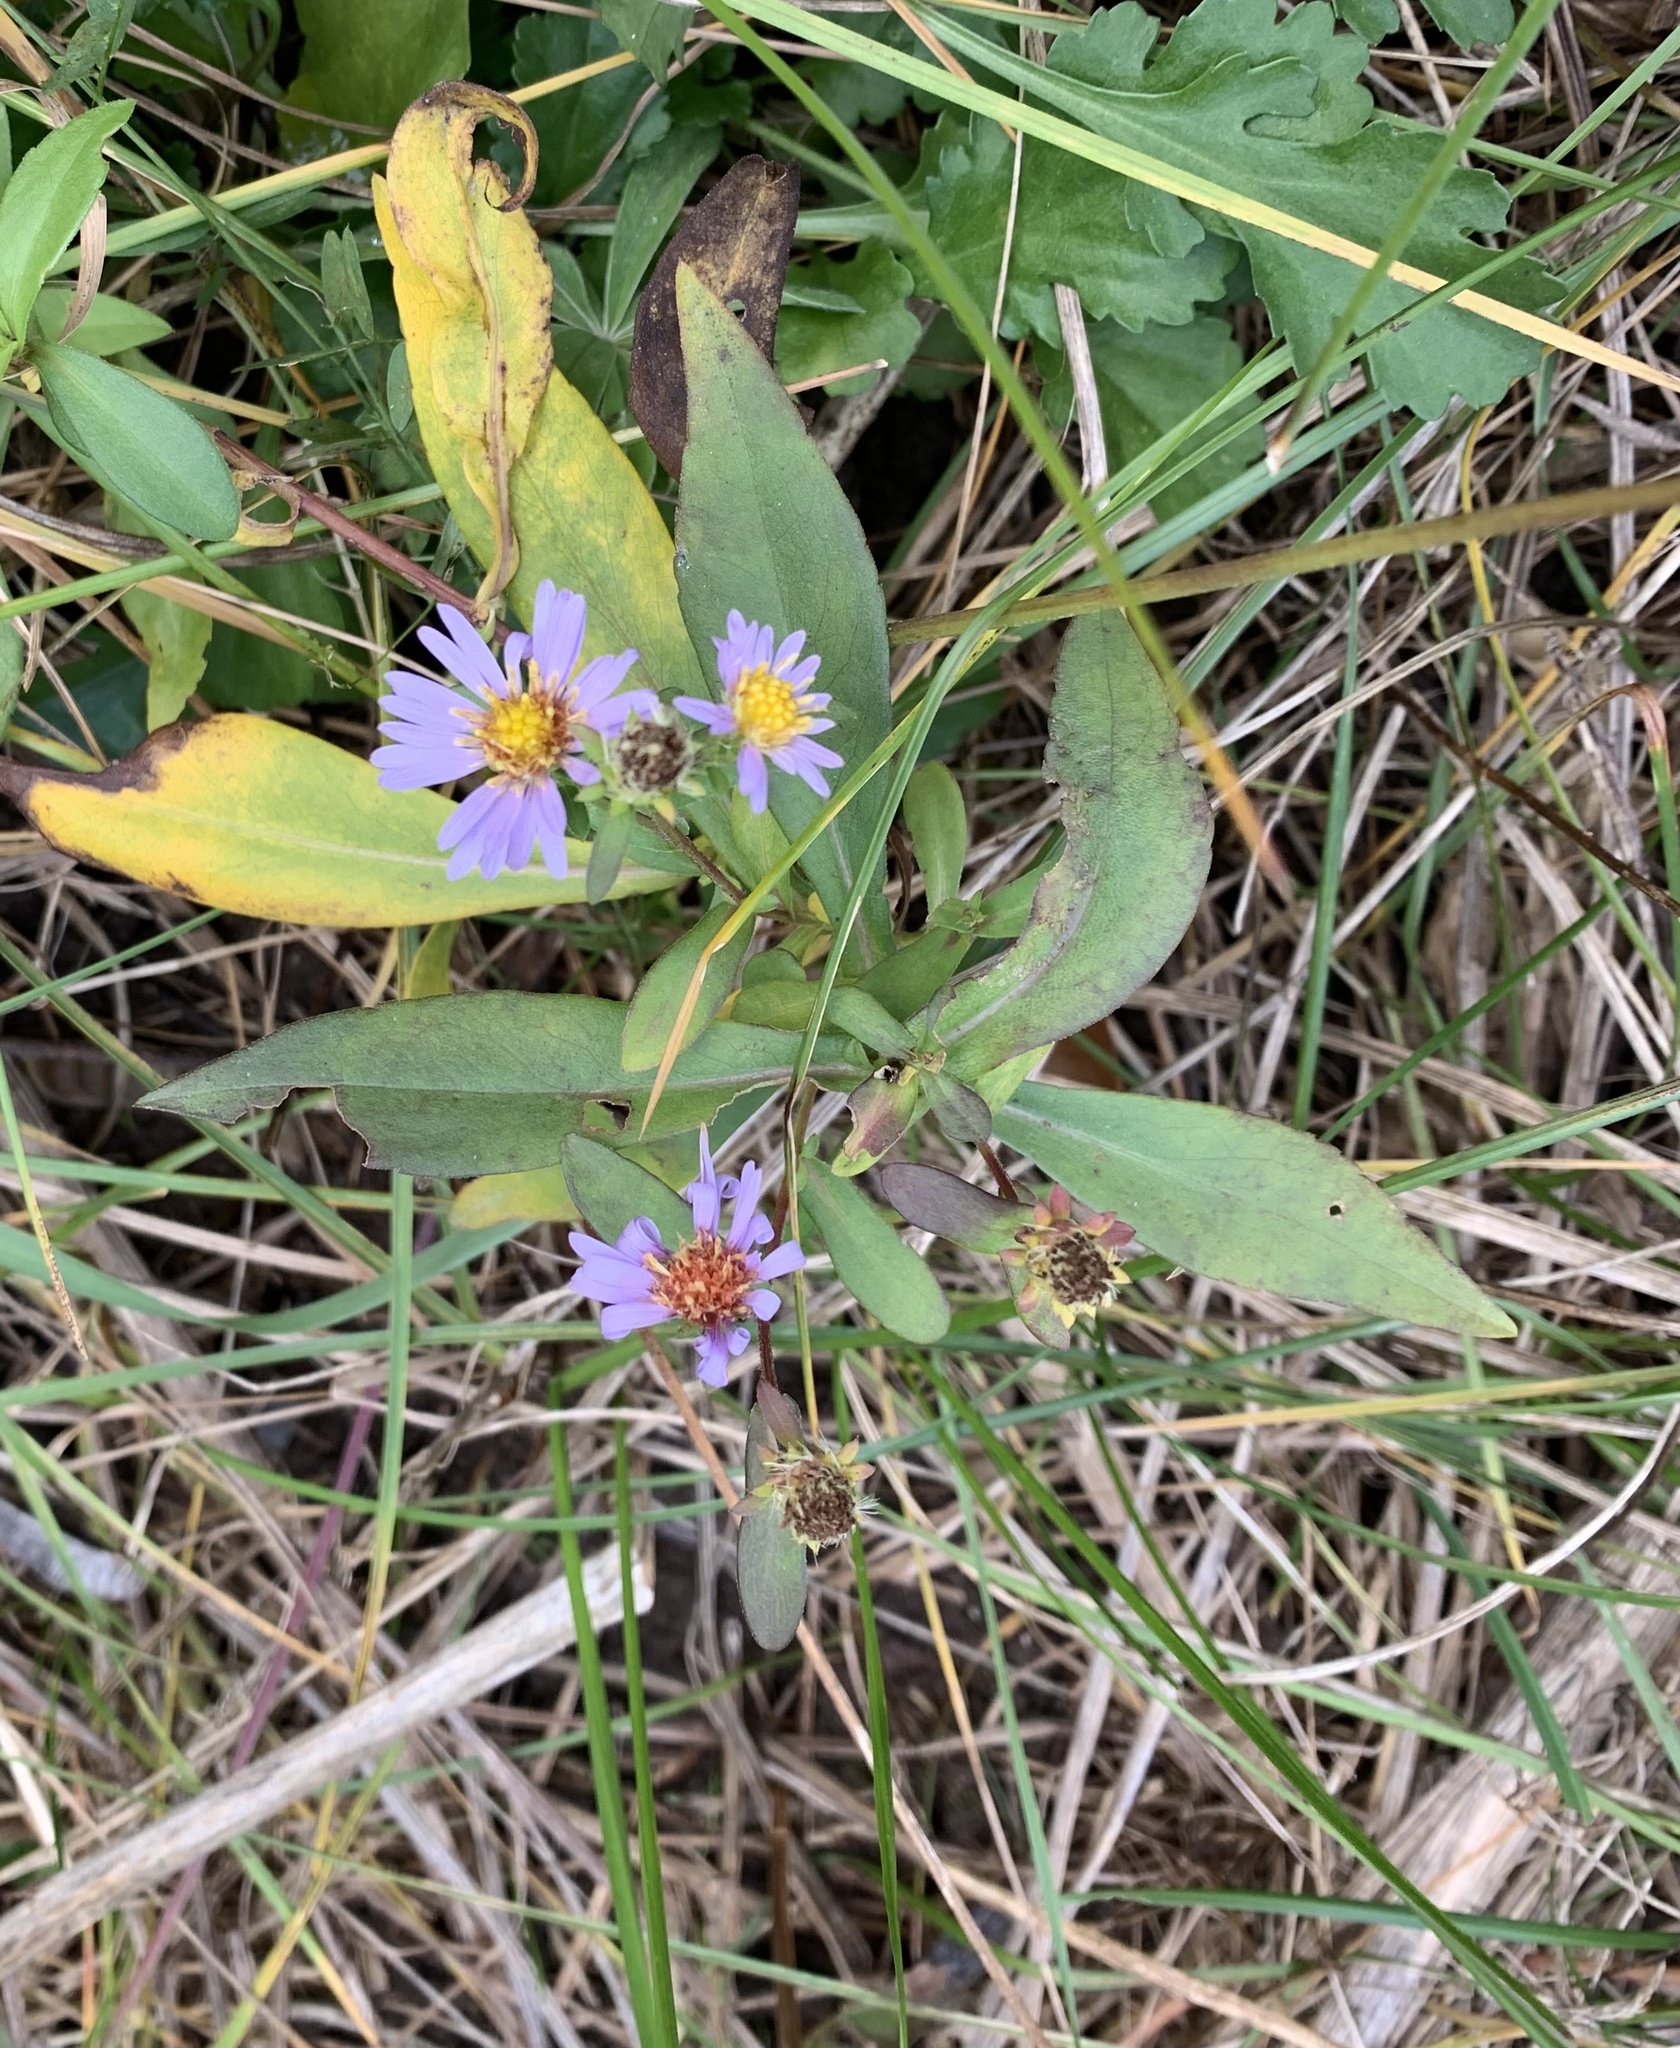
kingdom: Plantae
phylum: Tracheophyta
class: Magnoliopsida
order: Asterales
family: Asteraceae
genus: Symphyotrichum
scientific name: Symphyotrichum novi-belgii
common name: Michaelmas daisy
